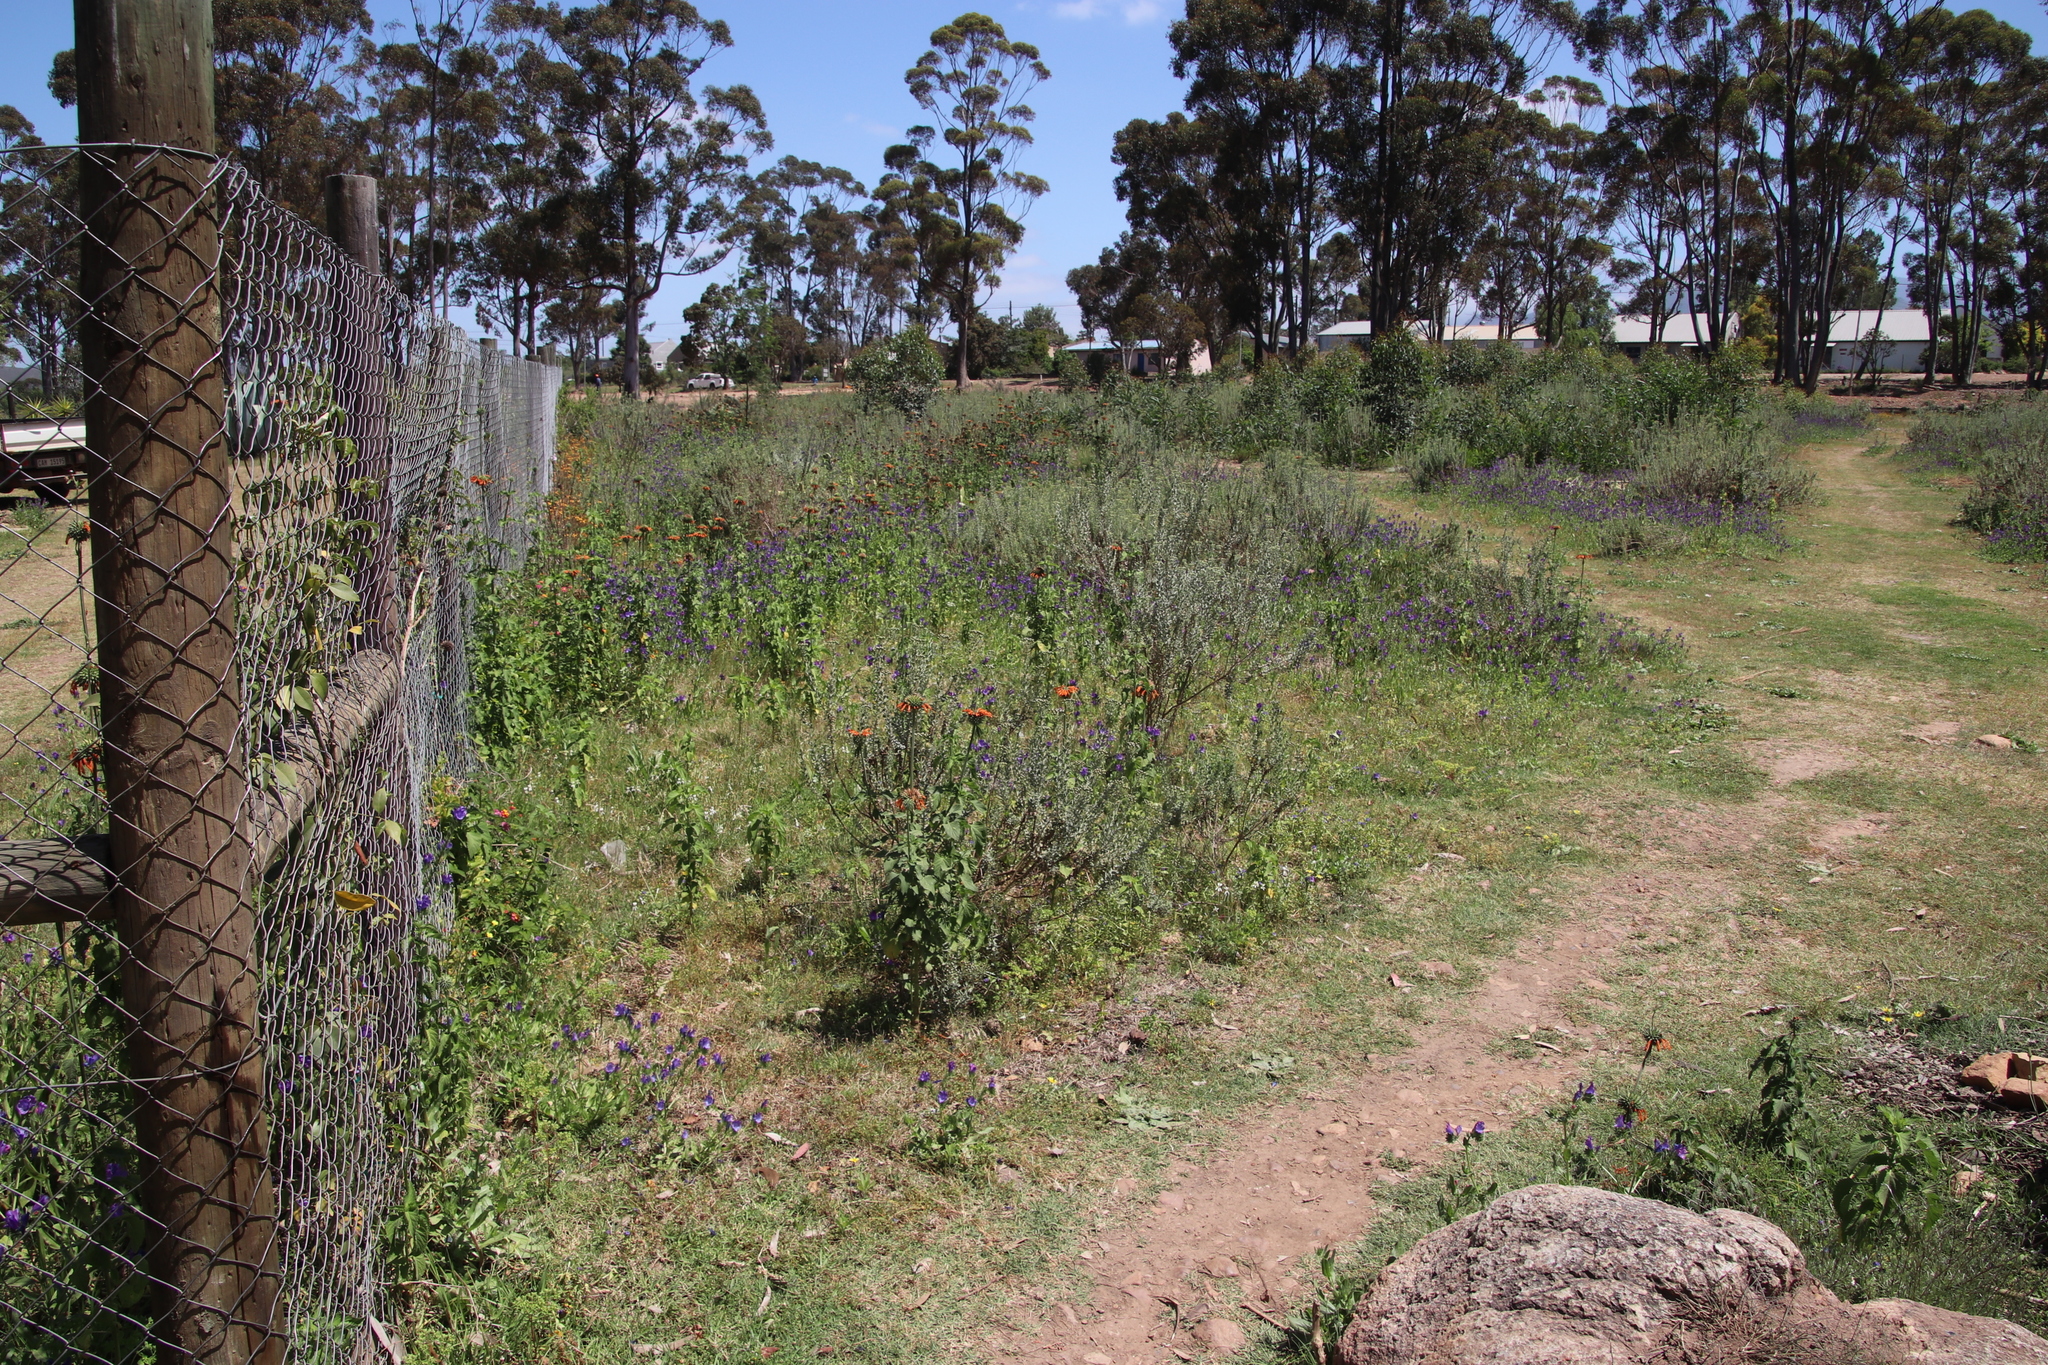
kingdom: Plantae
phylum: Tracheophyta
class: Magnoliopsida
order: Lamiales
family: Lamiaceae
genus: Leonotis
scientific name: Leonotis nepetifolia
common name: Christmas candlestick
